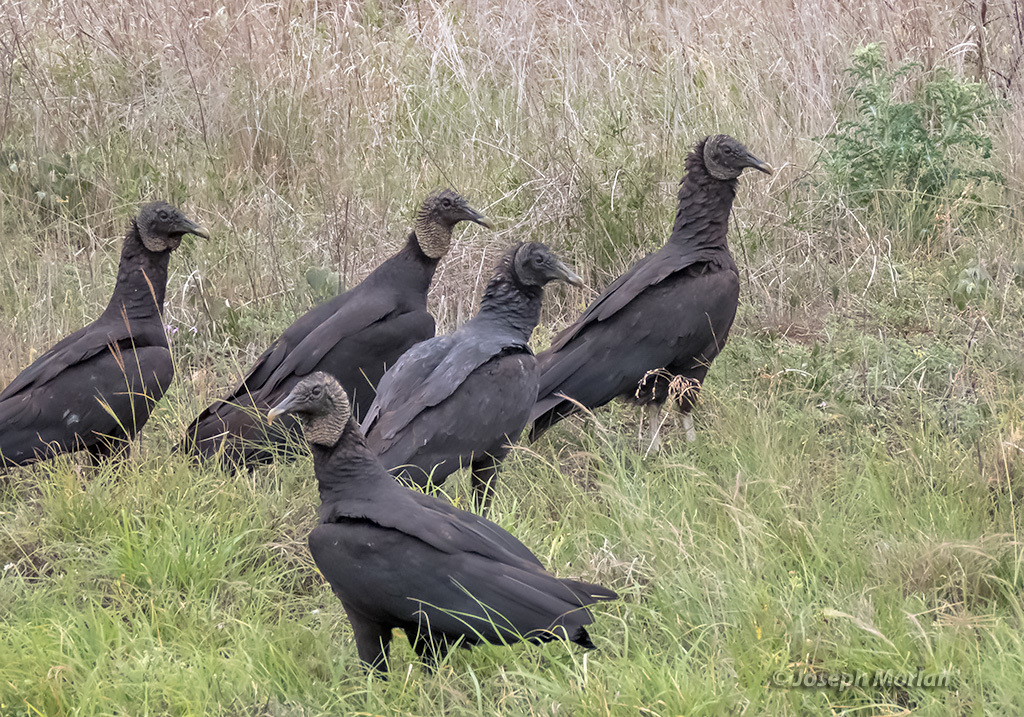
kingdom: Animalia
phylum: Chordata
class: Aves
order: Accipitriformes
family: Cathartidae
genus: Coragyps
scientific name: Coragyps atratus
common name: Black vulture
